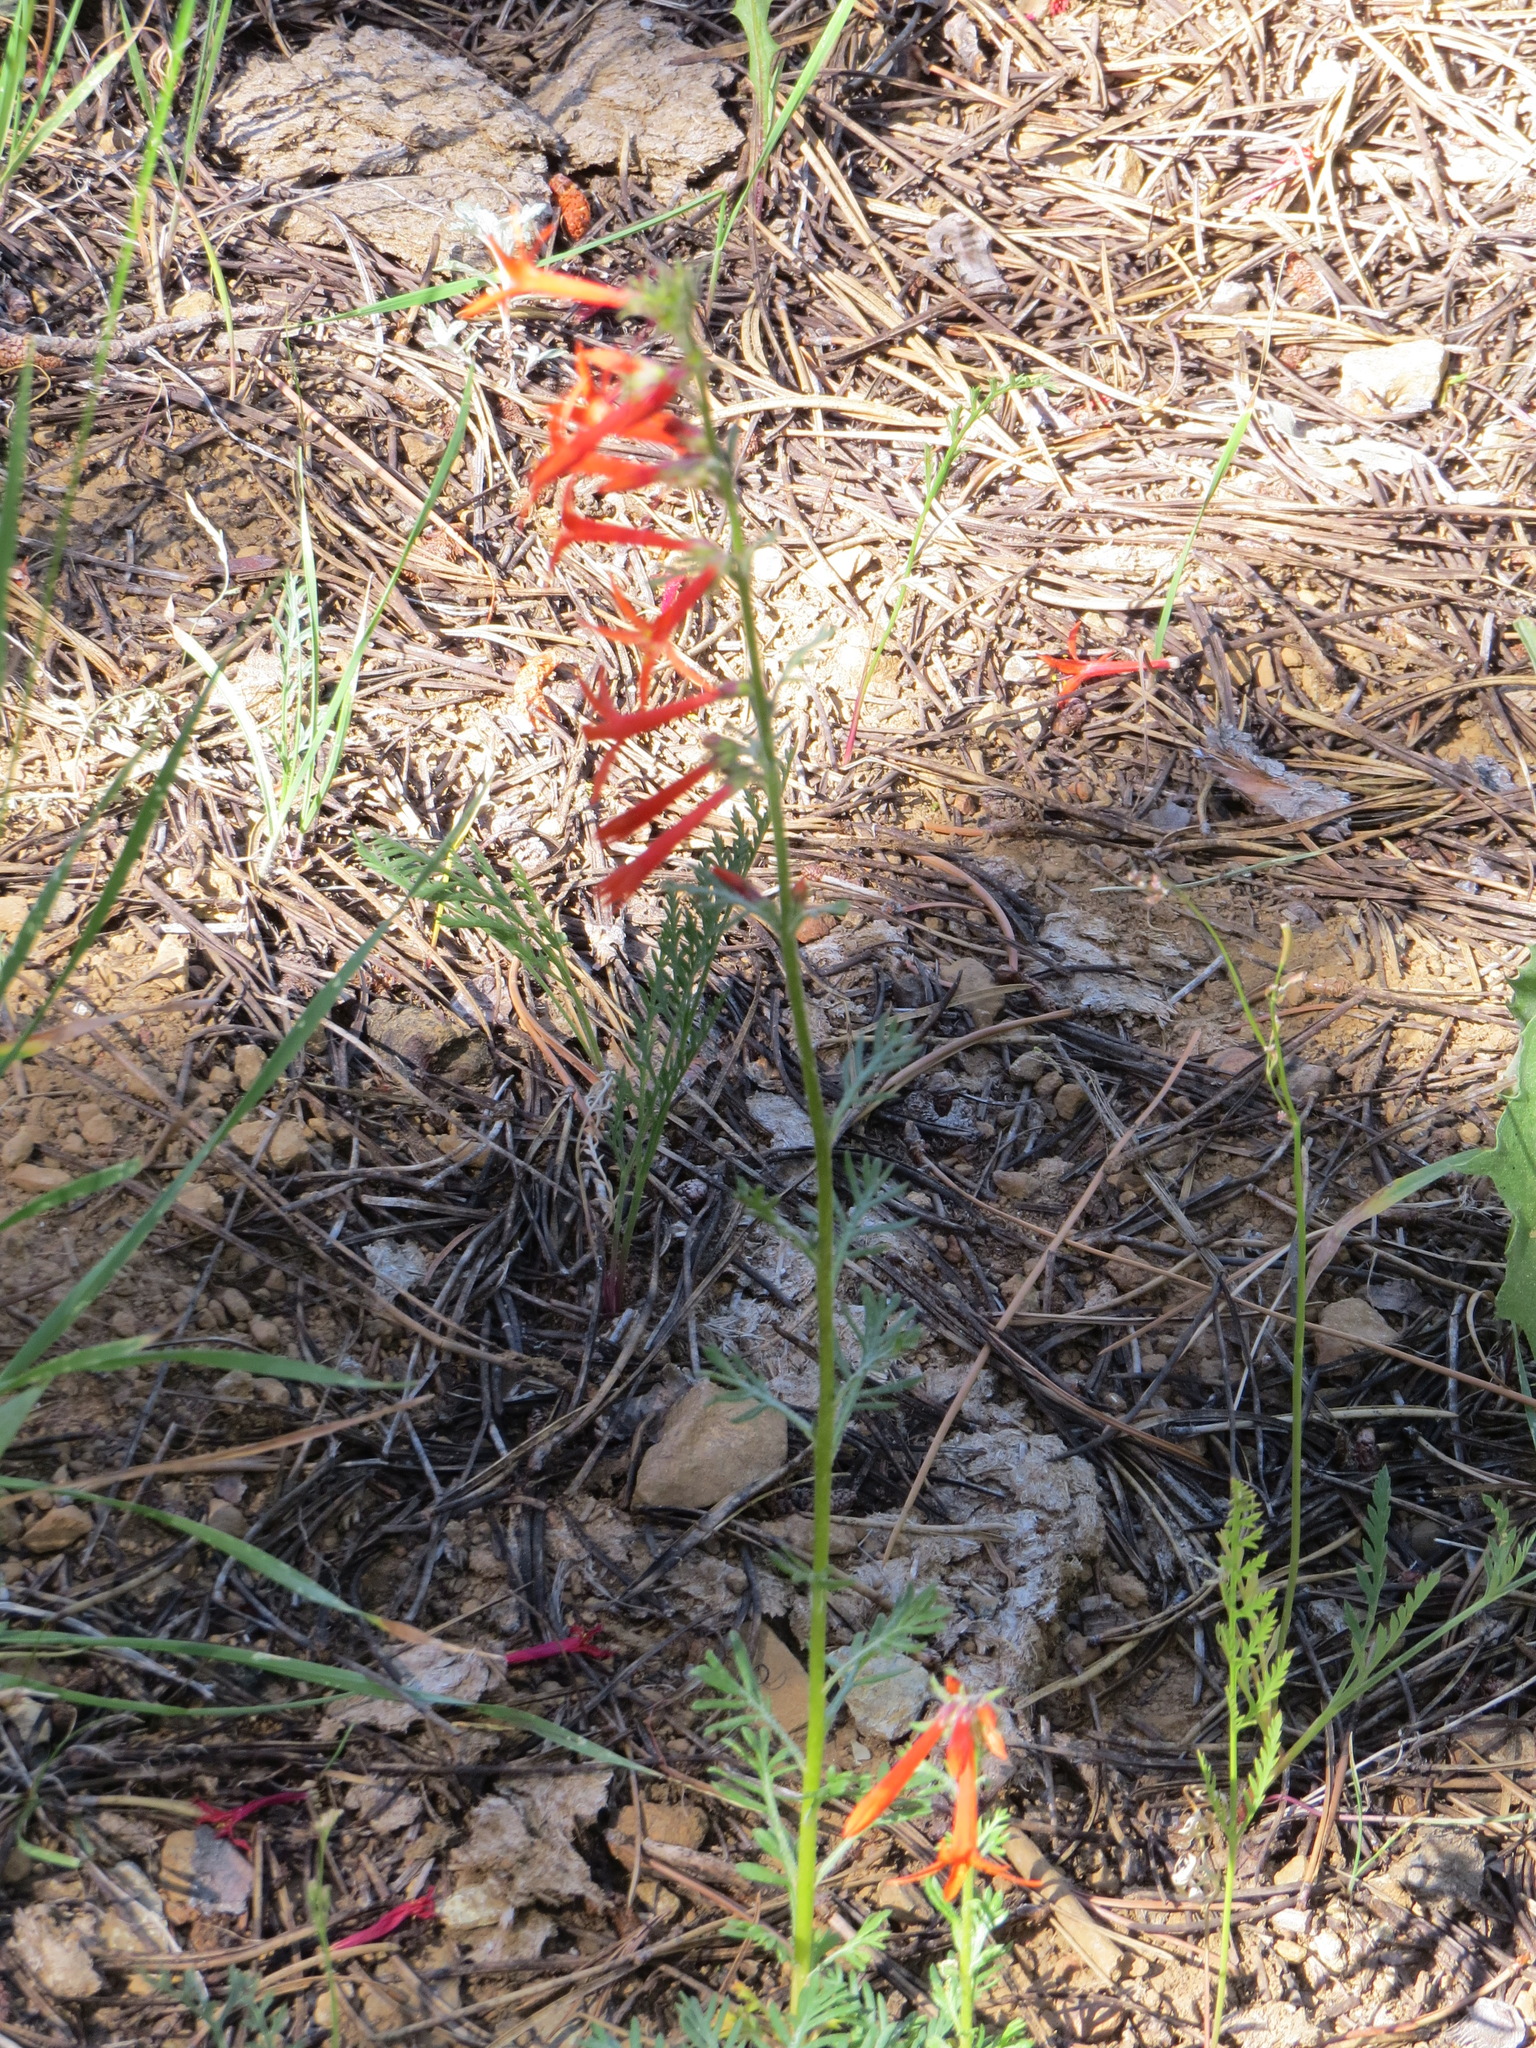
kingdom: Plantae
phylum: Tracheophyta
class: Magnoliopsida
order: Ericales
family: Polemoniaceae
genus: Ipomopsis
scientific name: Ipomopsis aggregata
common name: Scarlet gilia
